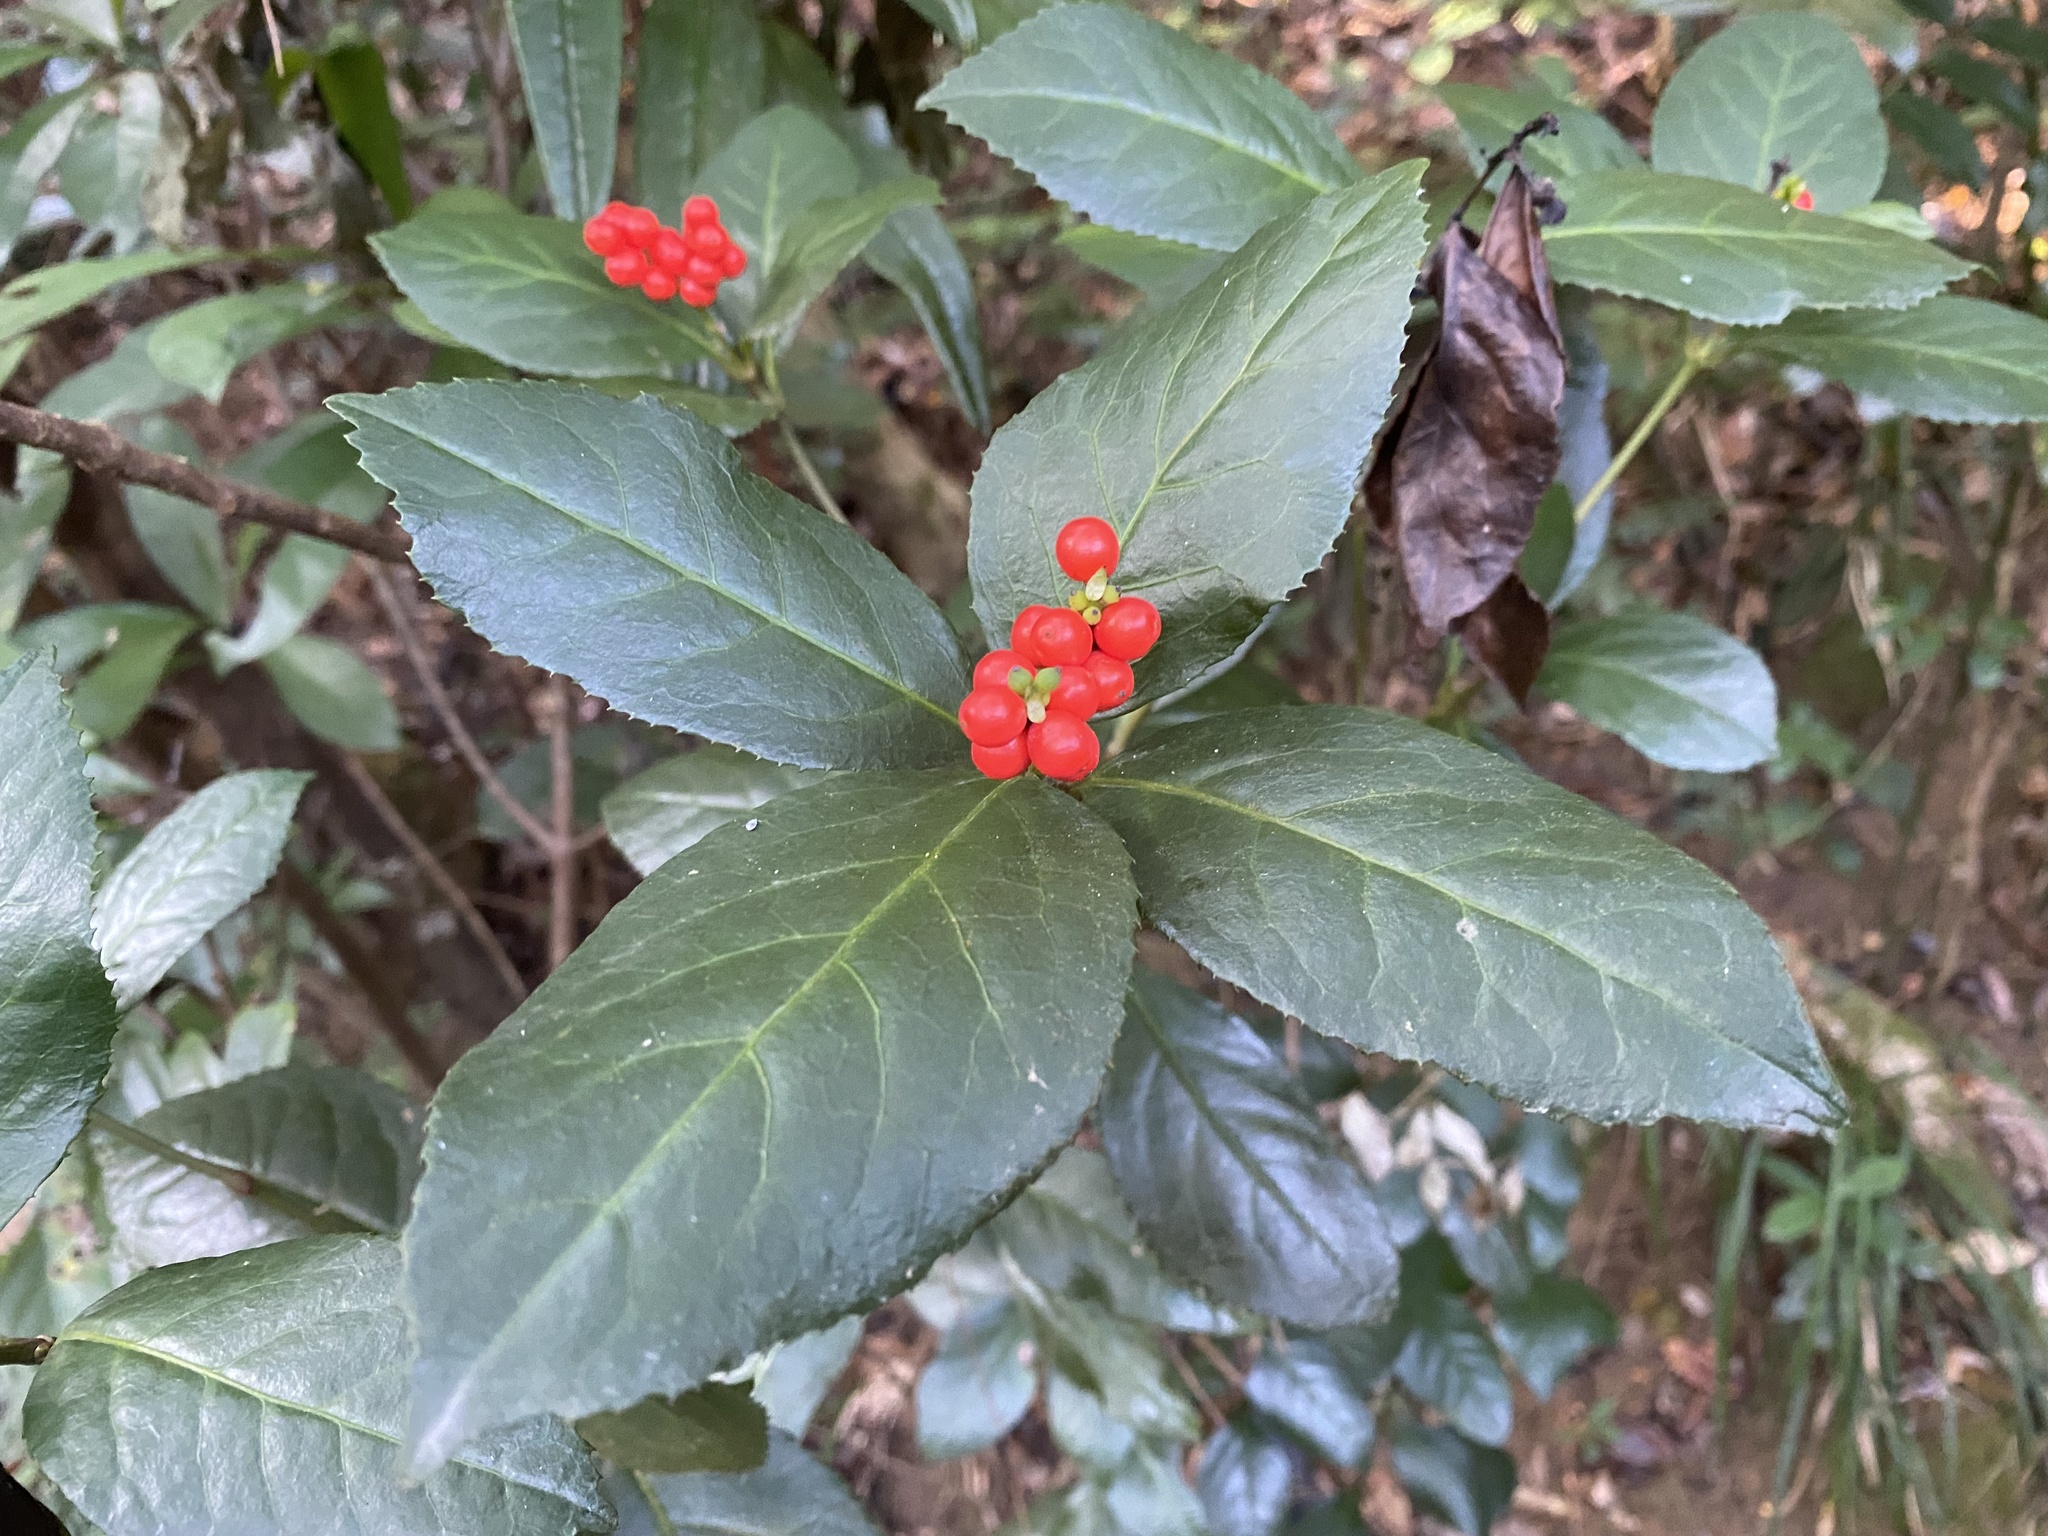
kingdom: Plantae
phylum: Tracheophyta
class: Magnoliopsida
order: Chloranthales
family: Chloranthaceae
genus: Sarcandra
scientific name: Sarcandra glabra
